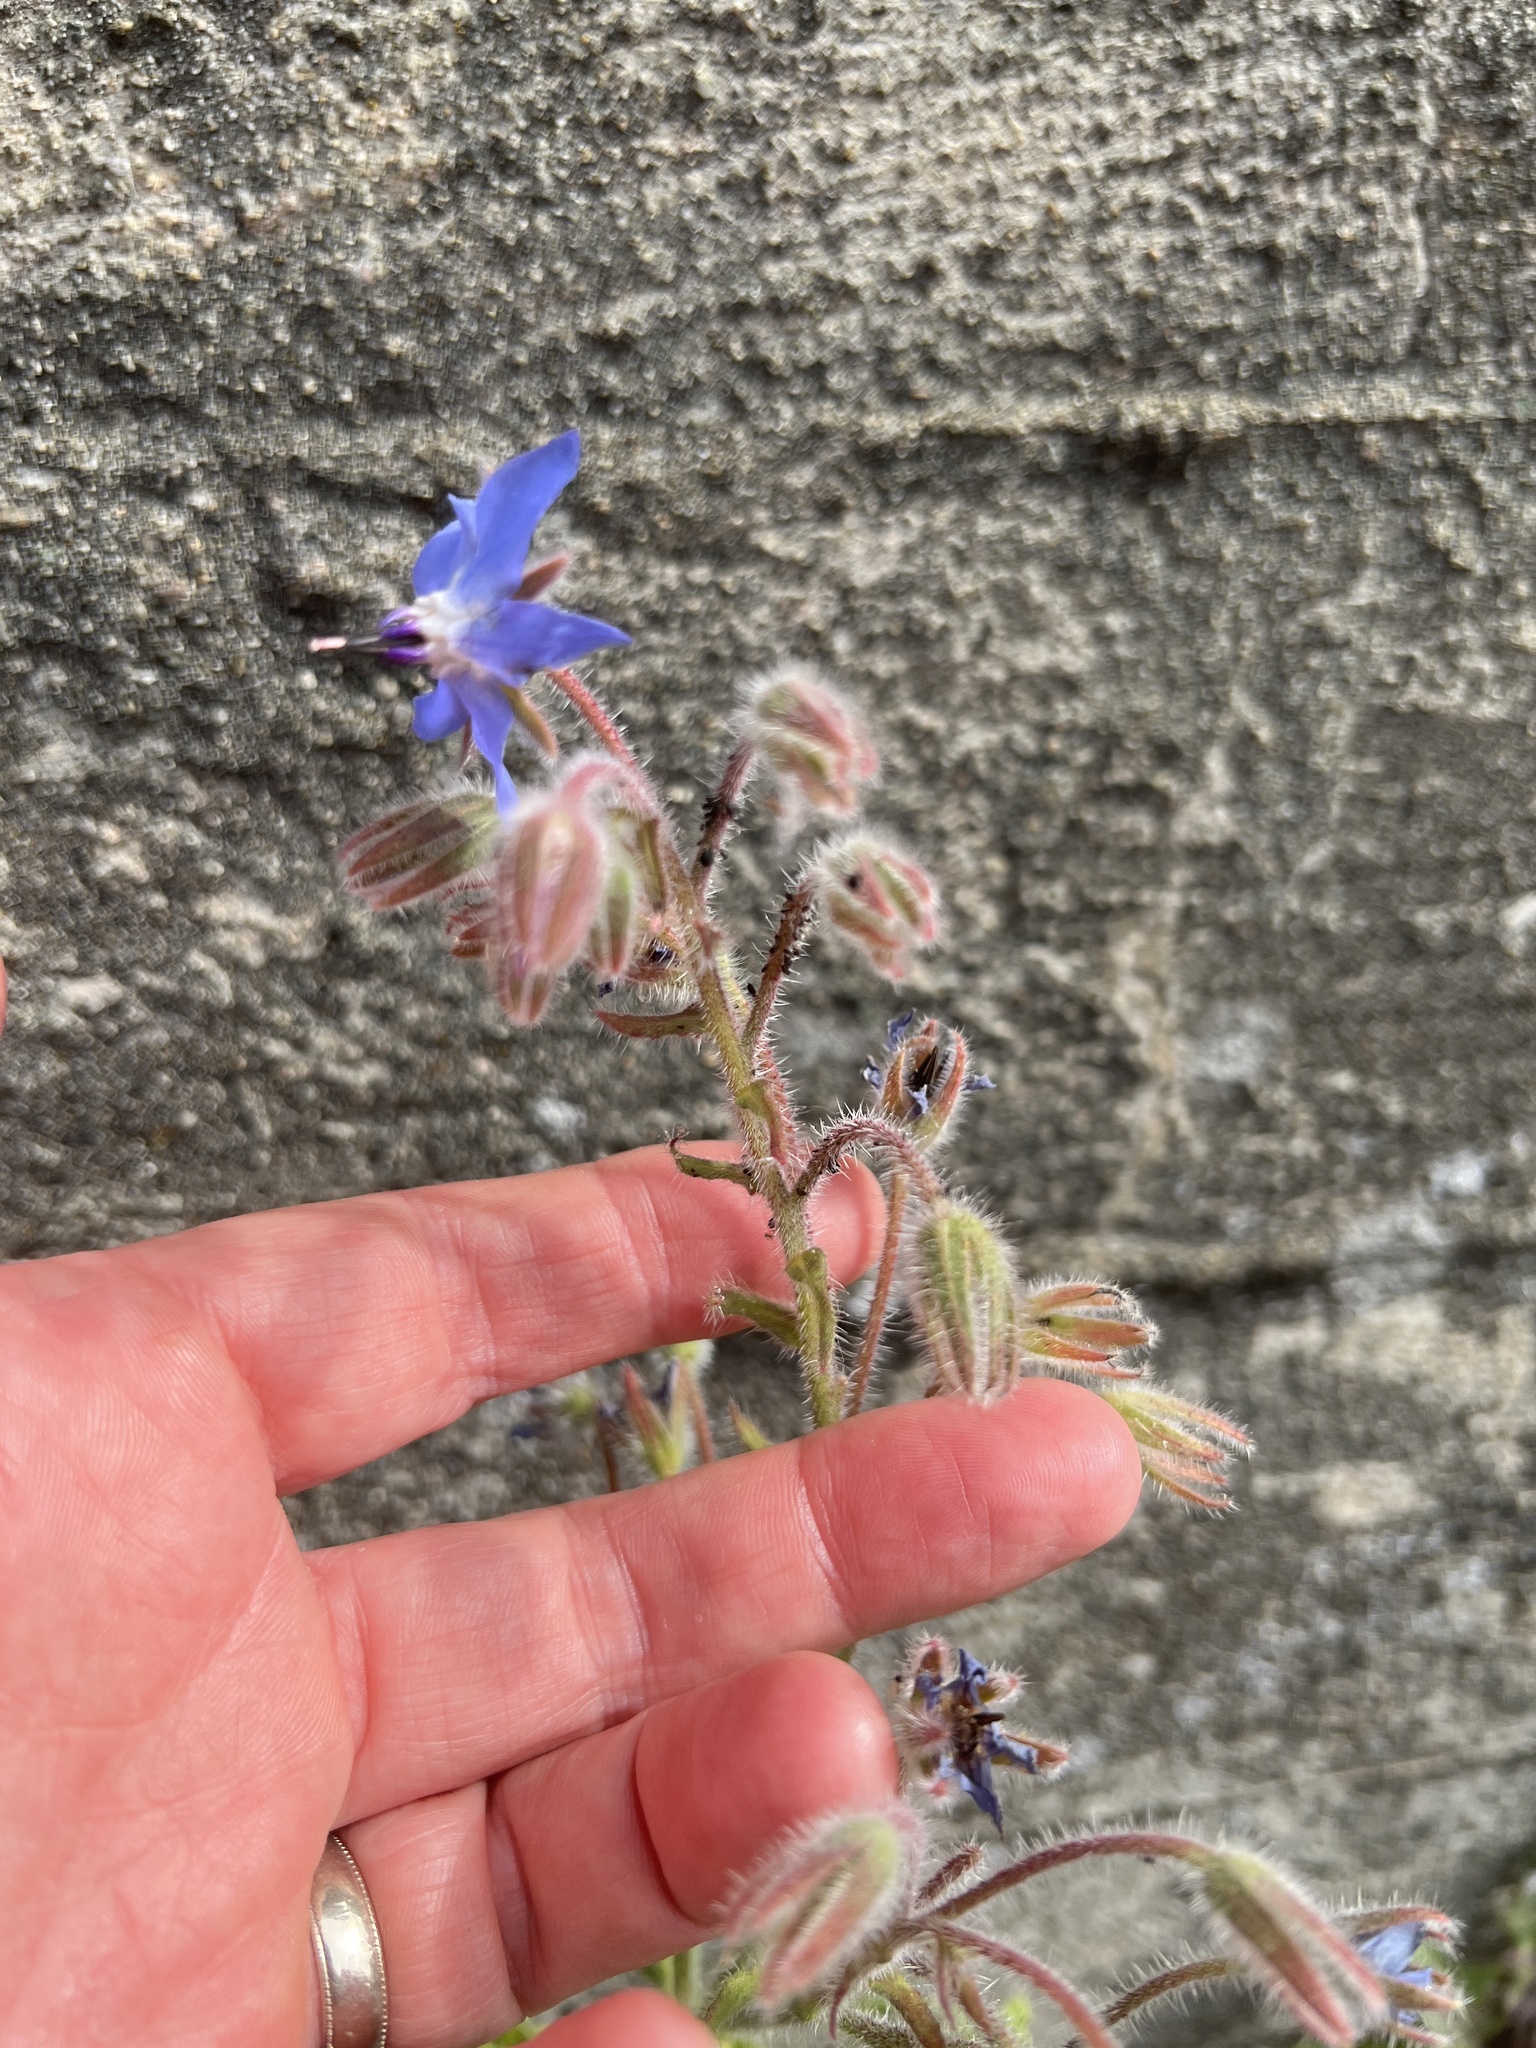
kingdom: Plantae
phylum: Tracheophyta
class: Magnoliopsida
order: Boraginales
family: Boraginaceae
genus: Borago
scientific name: Borago officinalis
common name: Borage
